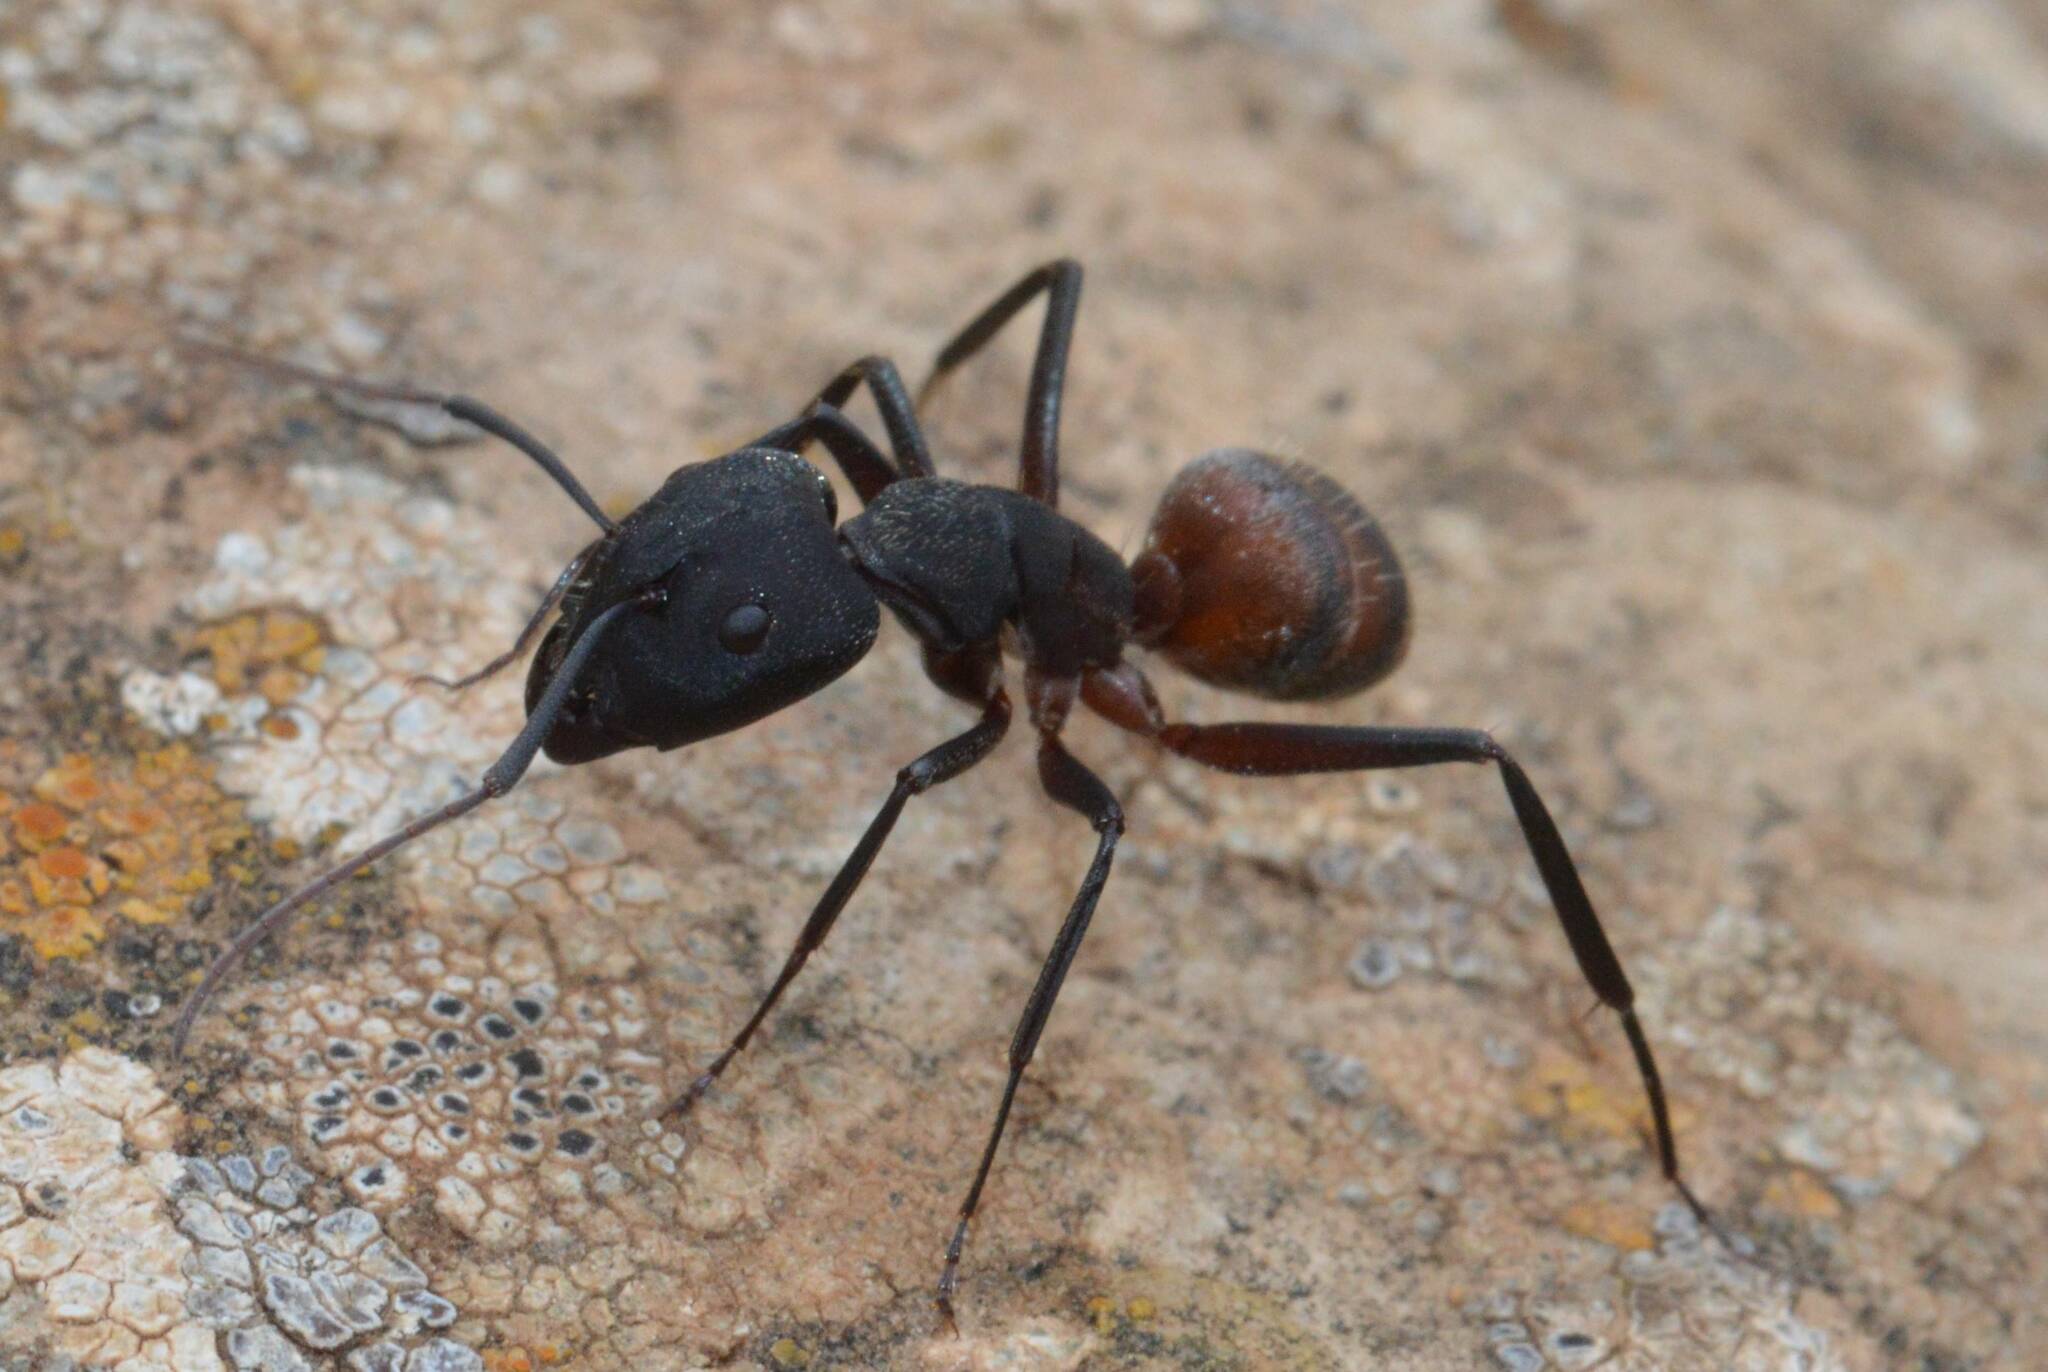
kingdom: Animalia
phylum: Arthropoda
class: Insecta
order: Hymenoptera
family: Formicidae
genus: Camponotus
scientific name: Camponotus cruentatus
